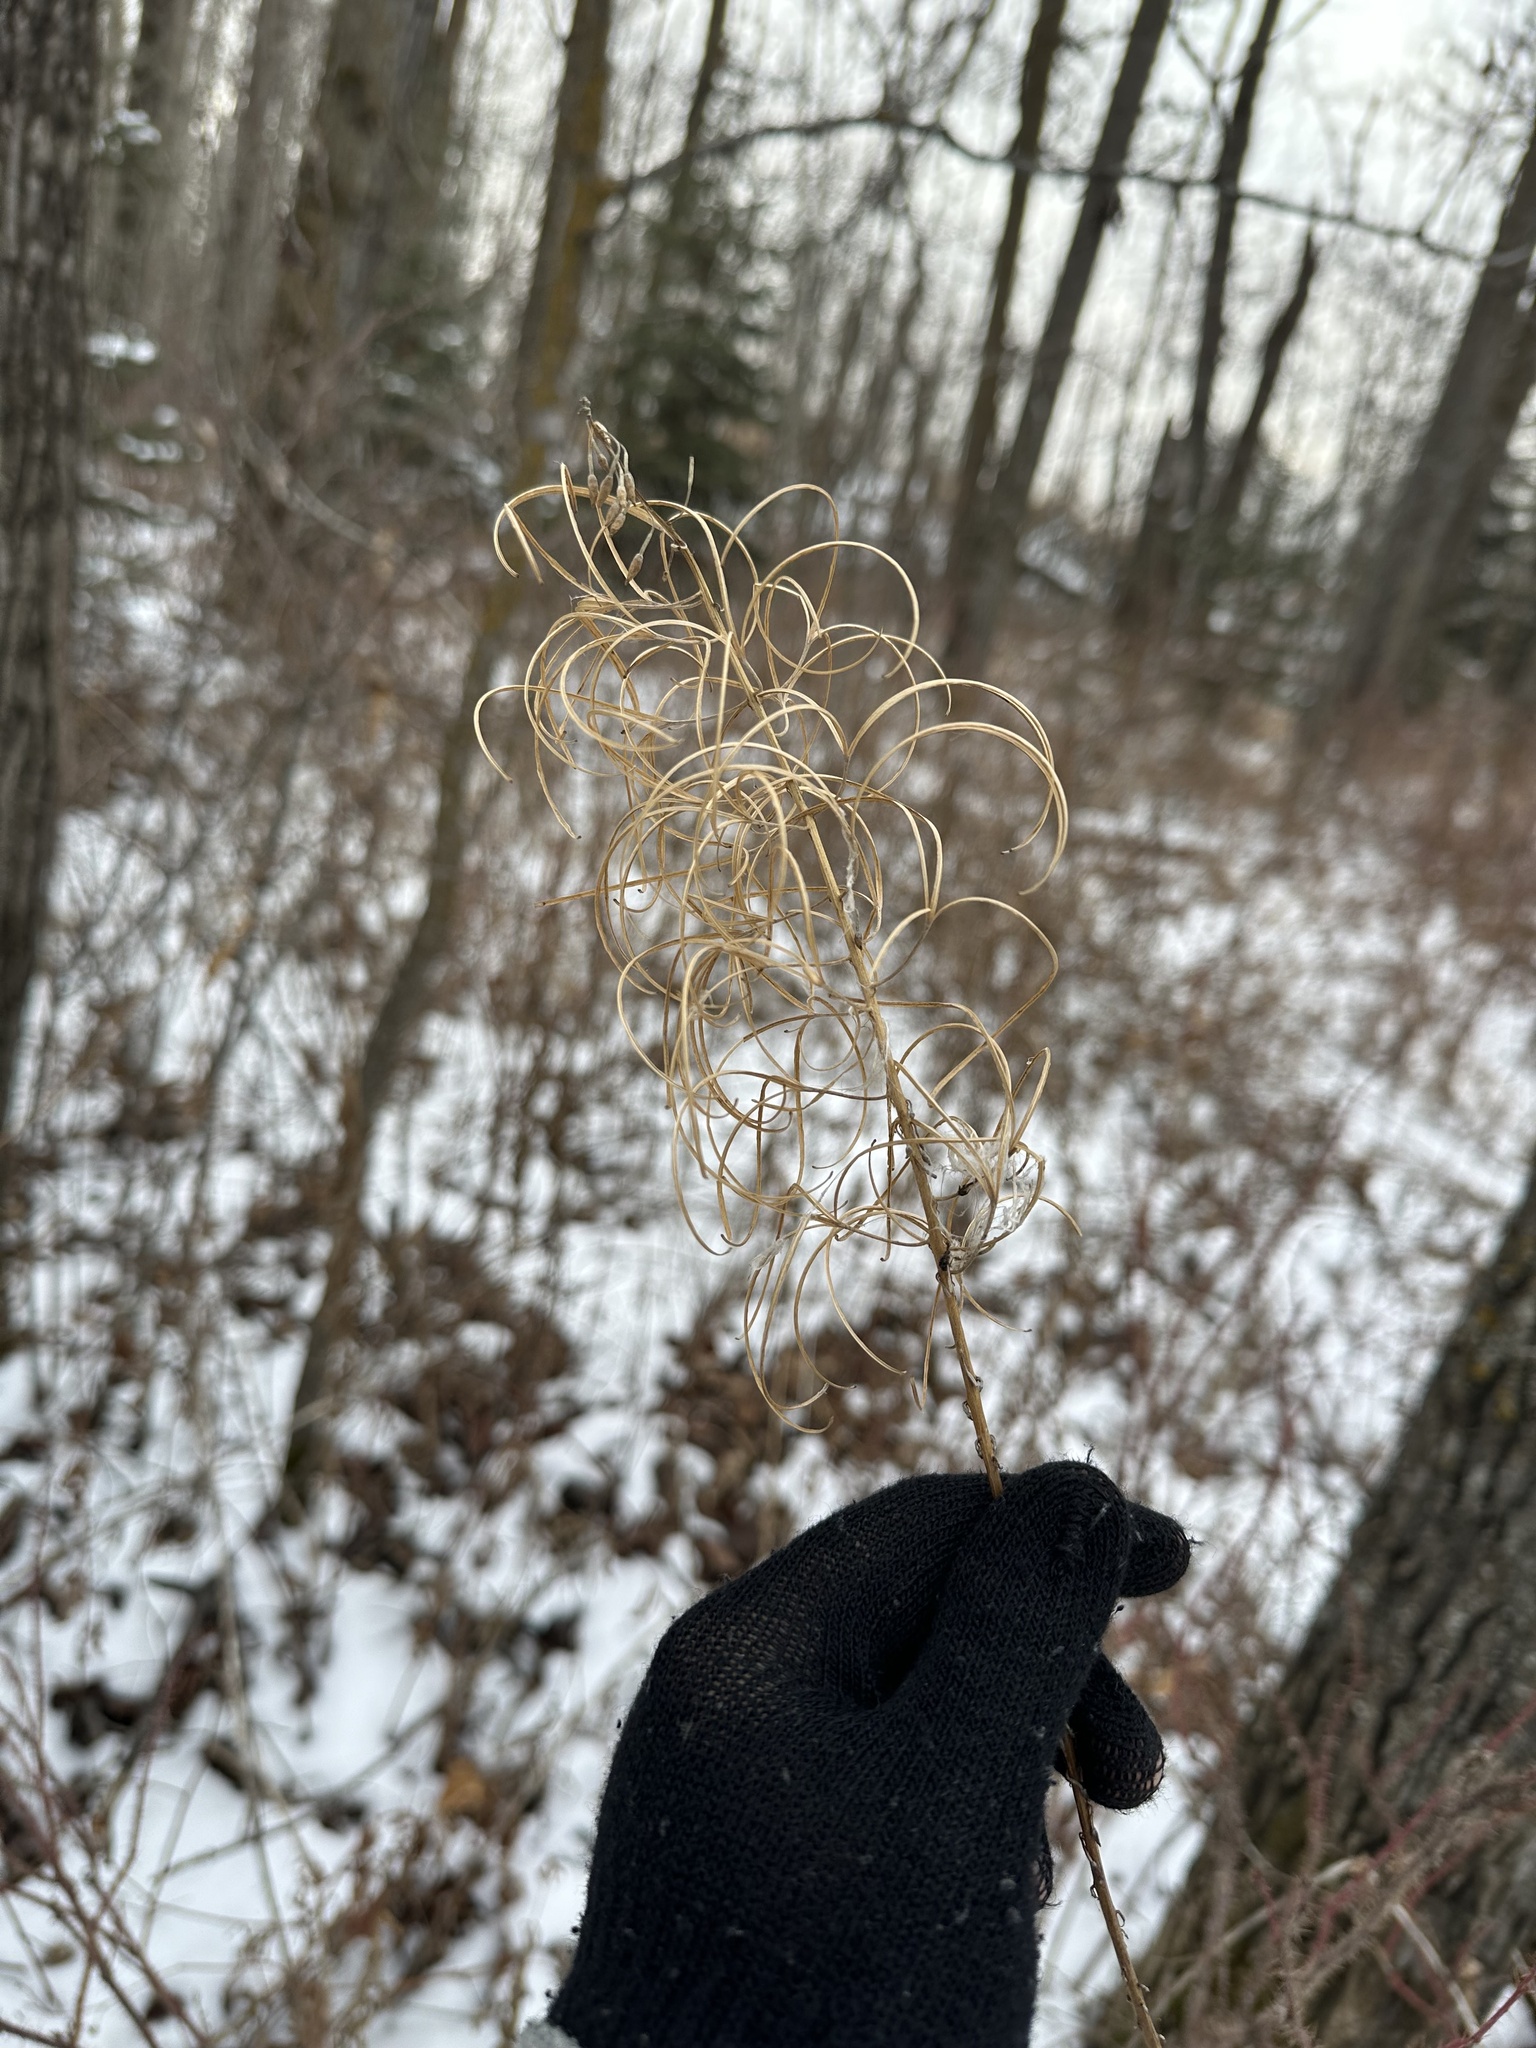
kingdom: Plantae
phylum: Tracheophyta
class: Magnoliopsida
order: Myrtales
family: Onagraceae
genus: Chamaenerion
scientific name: Chamaenerion angustifolium
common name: Fireweed
